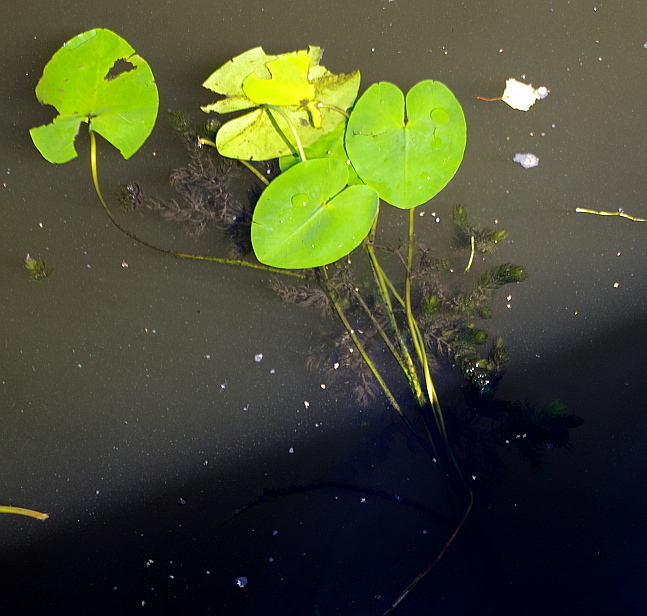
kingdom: Plantae
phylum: Tracheophyta
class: Magnoliopsida
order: Nymphaeales
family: Nymphaeaceae
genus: Nuphar
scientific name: Nuphar lutea
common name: Yellow water-lily
